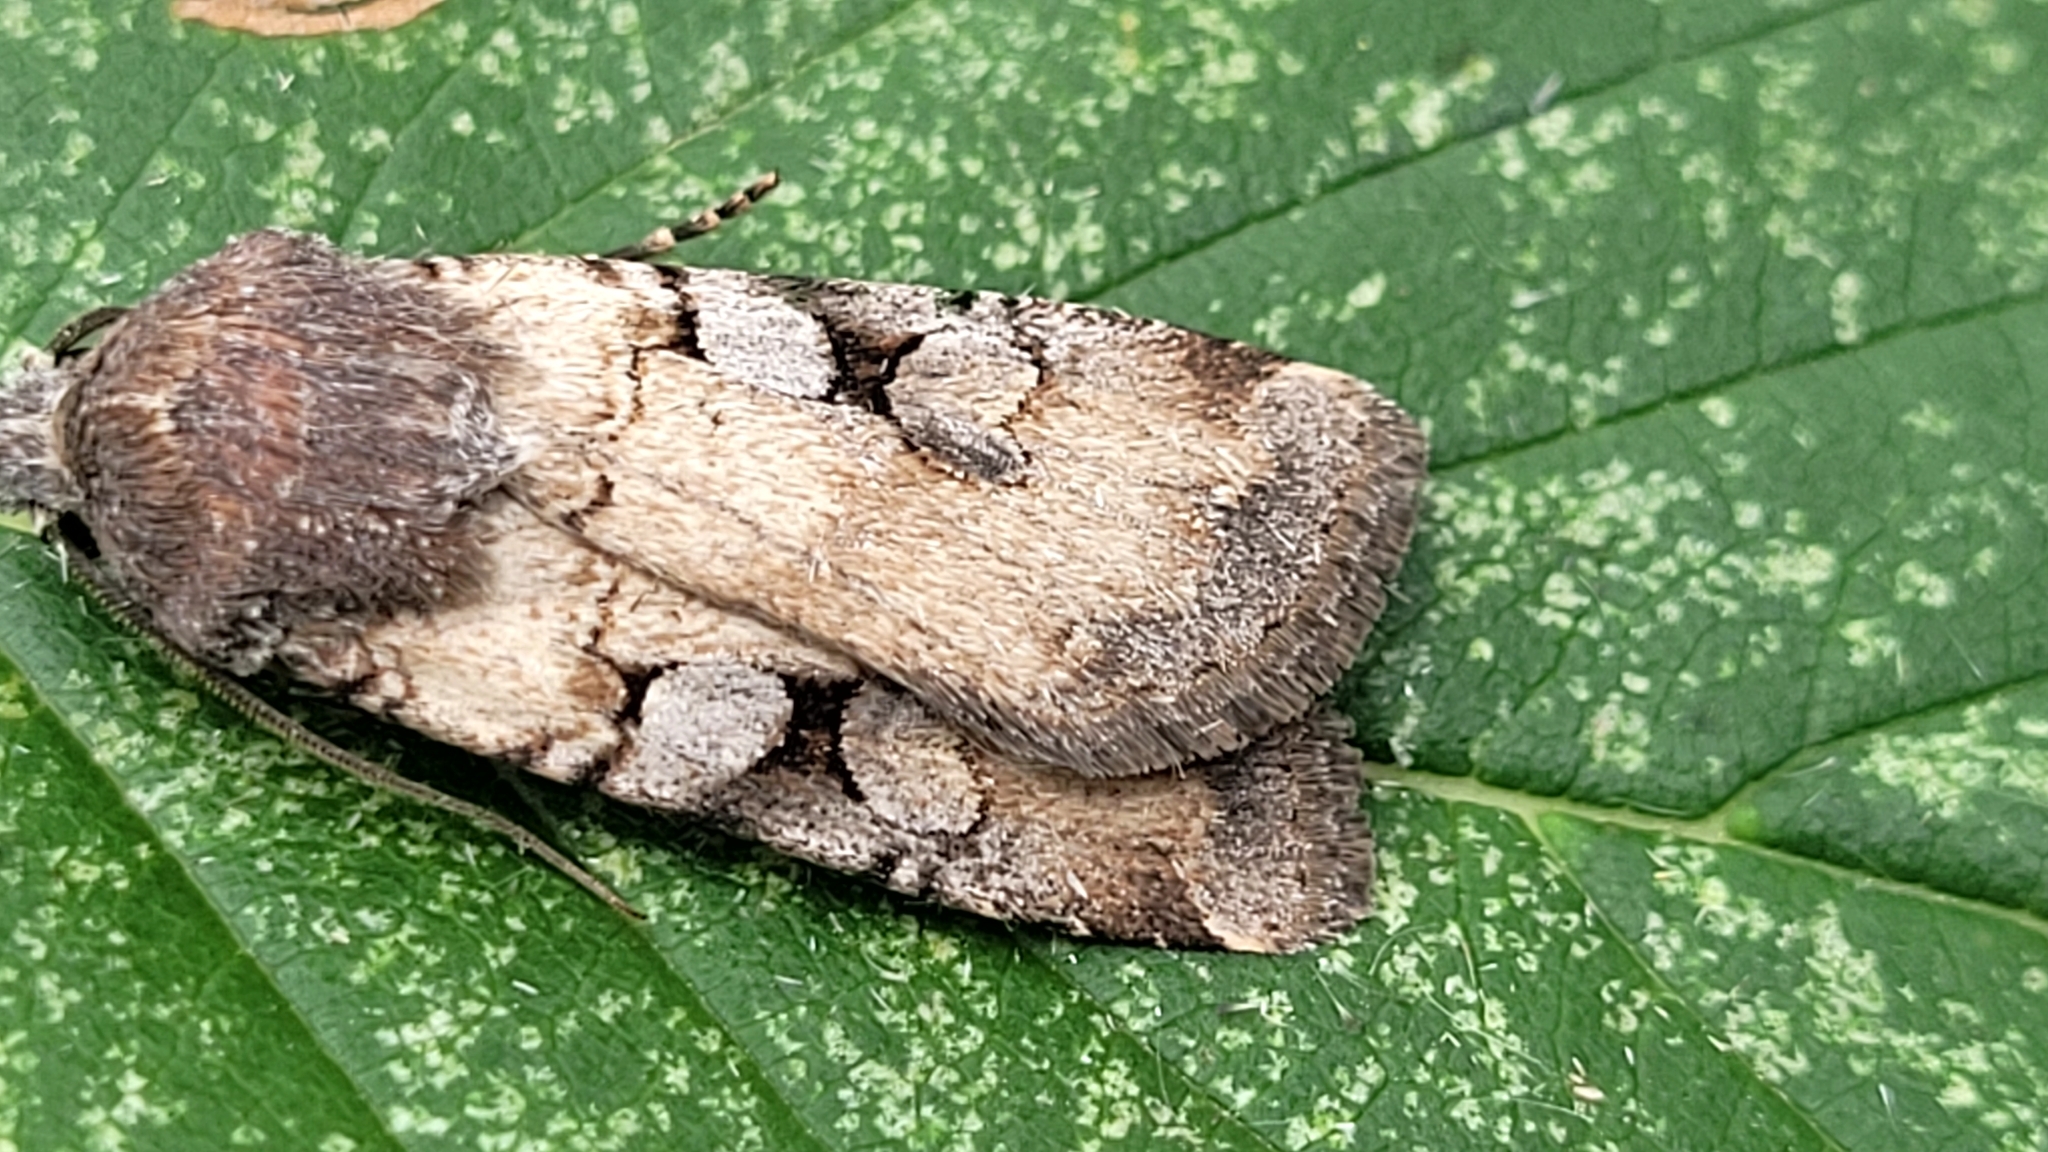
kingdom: Animalia
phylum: Arthropoda
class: Insecta
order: Lepidoptera
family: Noctuidae
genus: Euxoa
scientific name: Euxoa albipennis
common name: White-striped dart
